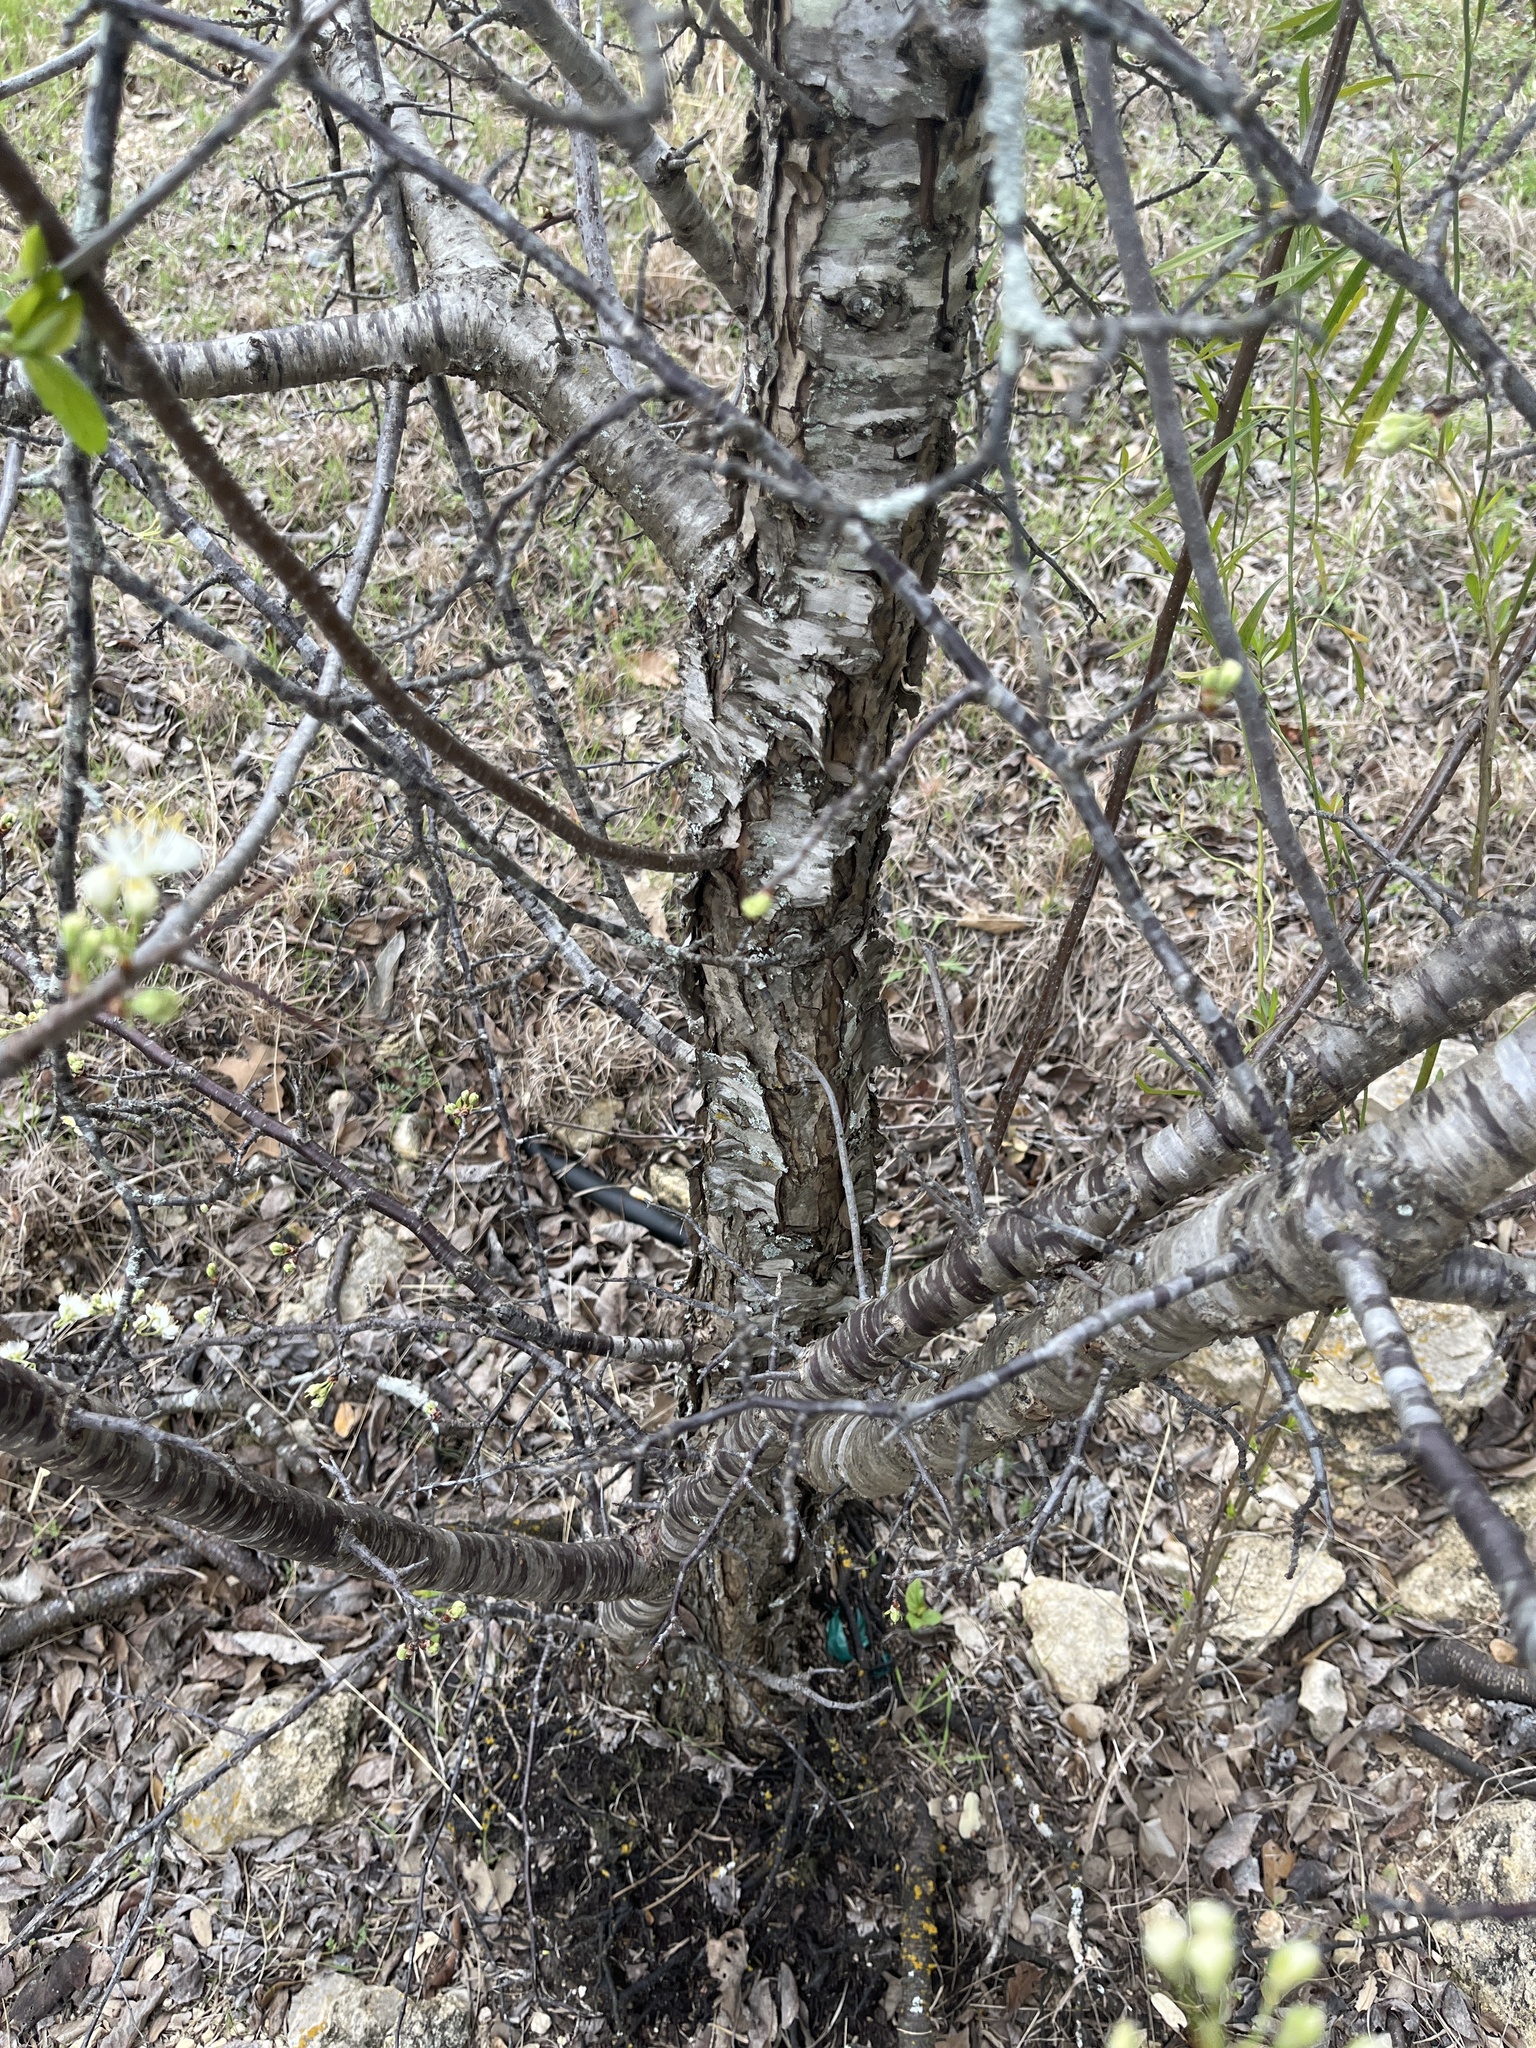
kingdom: Plantae
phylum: Tracheophyta
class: Magnoliopsida
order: Rosales
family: Rosaceae
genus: Prunus
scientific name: Prunus angustifolia
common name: Cherokee plum
